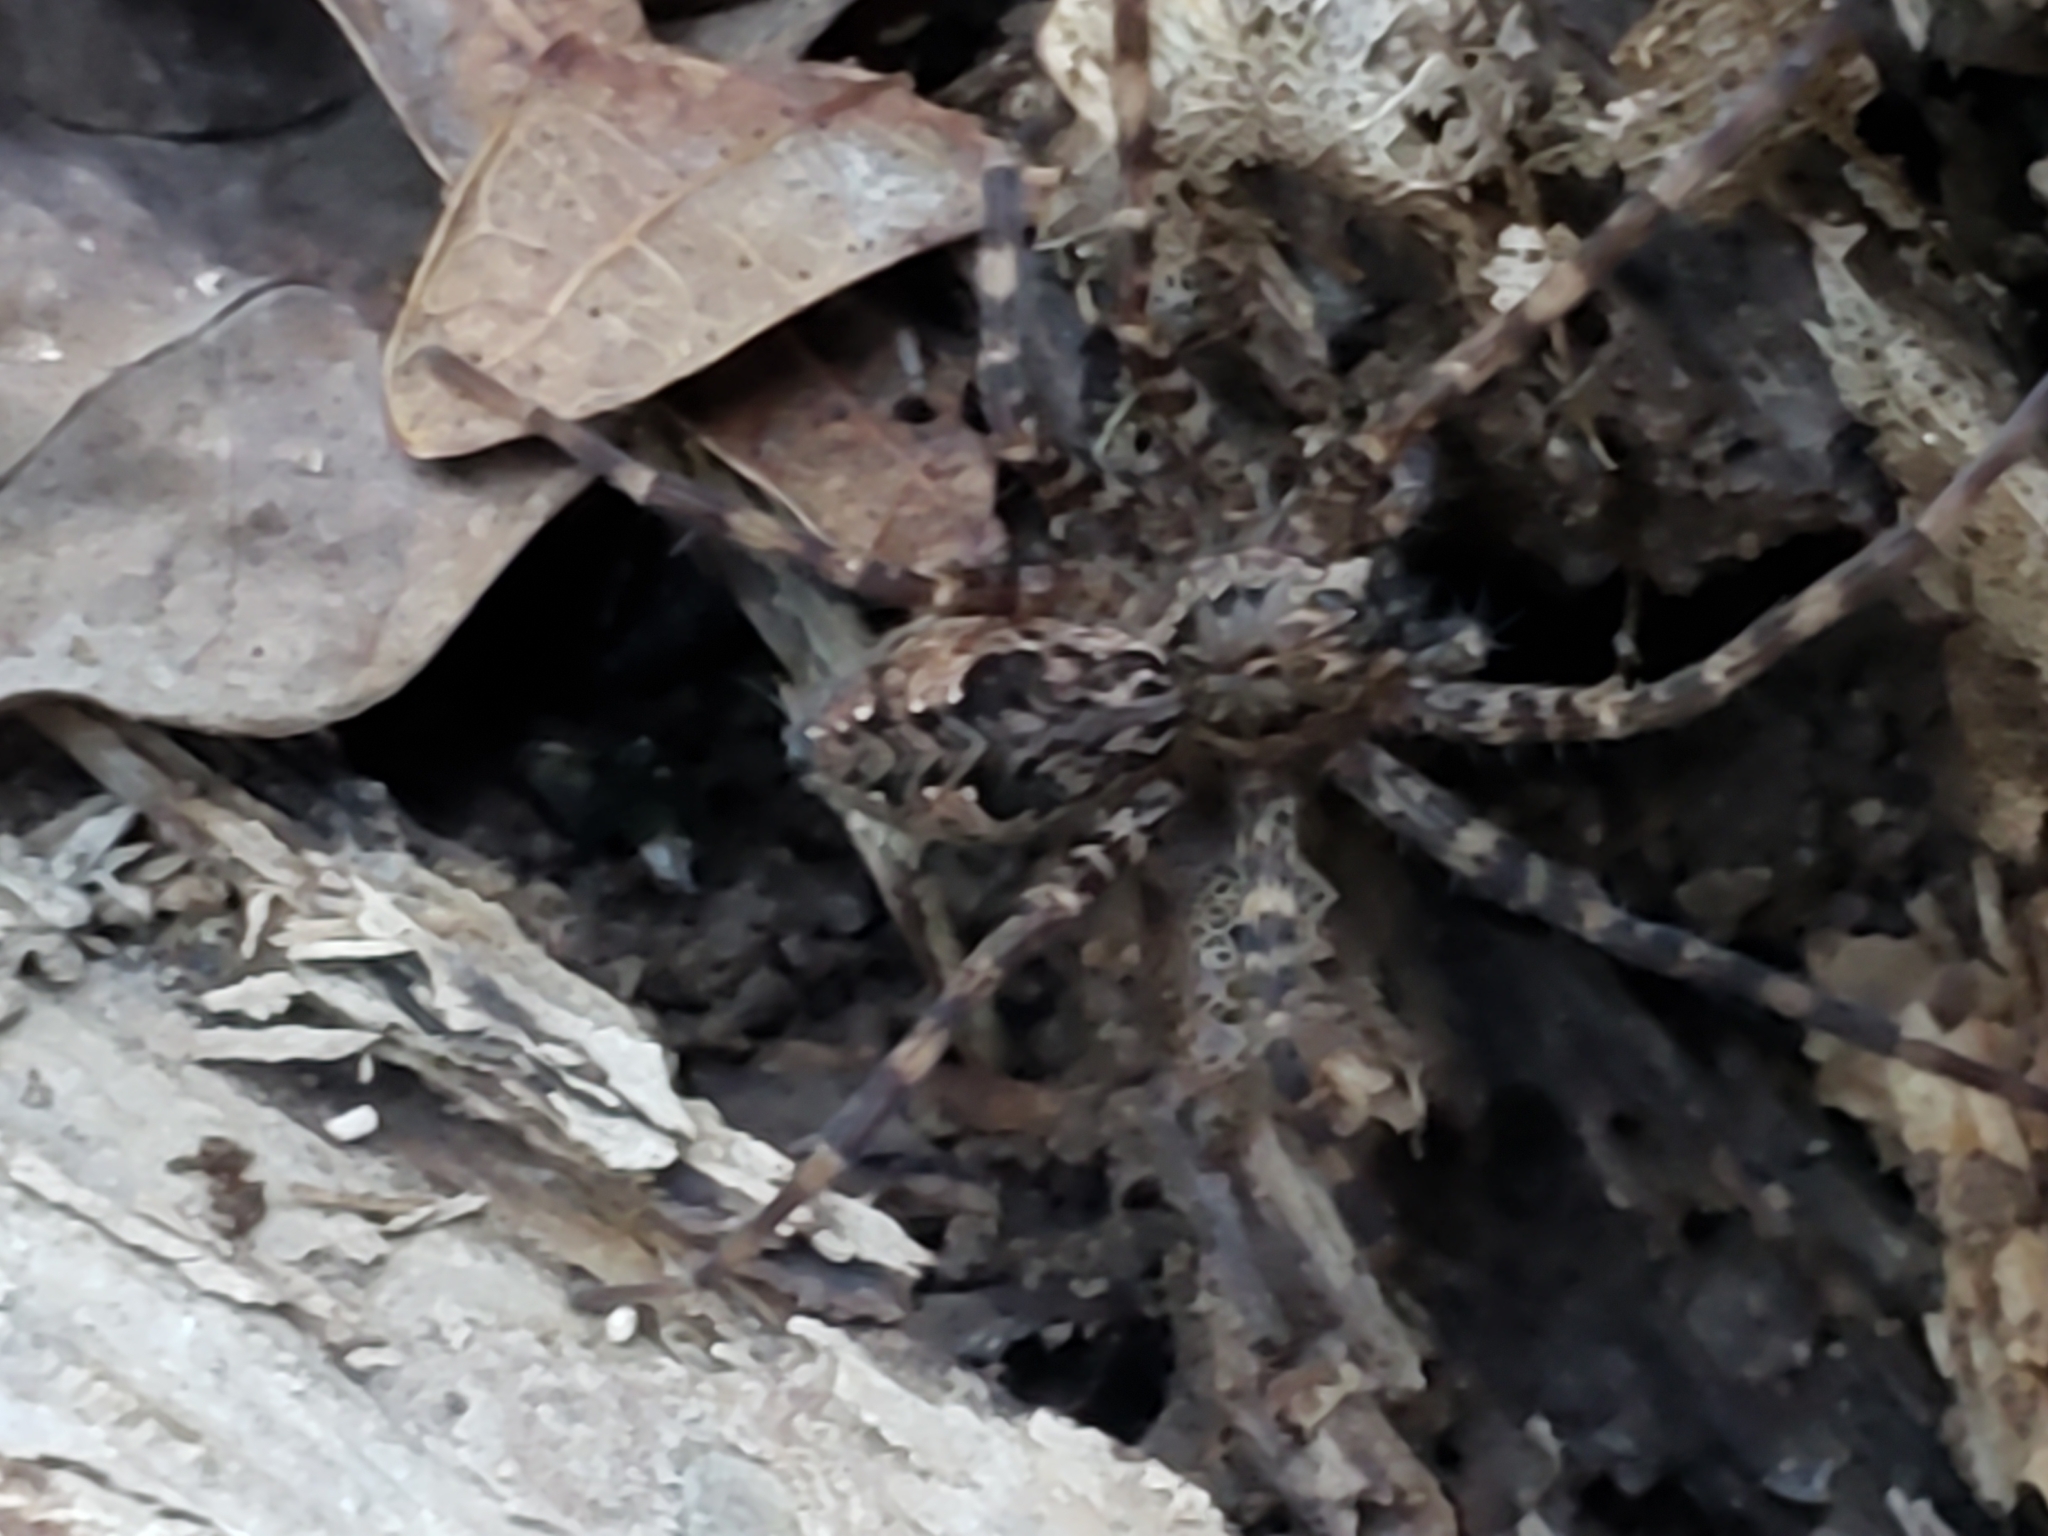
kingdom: Animalia
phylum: Arthropoda
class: Arachnida
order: Araneae
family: Pisauridae
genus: Dolomedes
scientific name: Dolomedes tenebrosus
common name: Dark fishing spider
